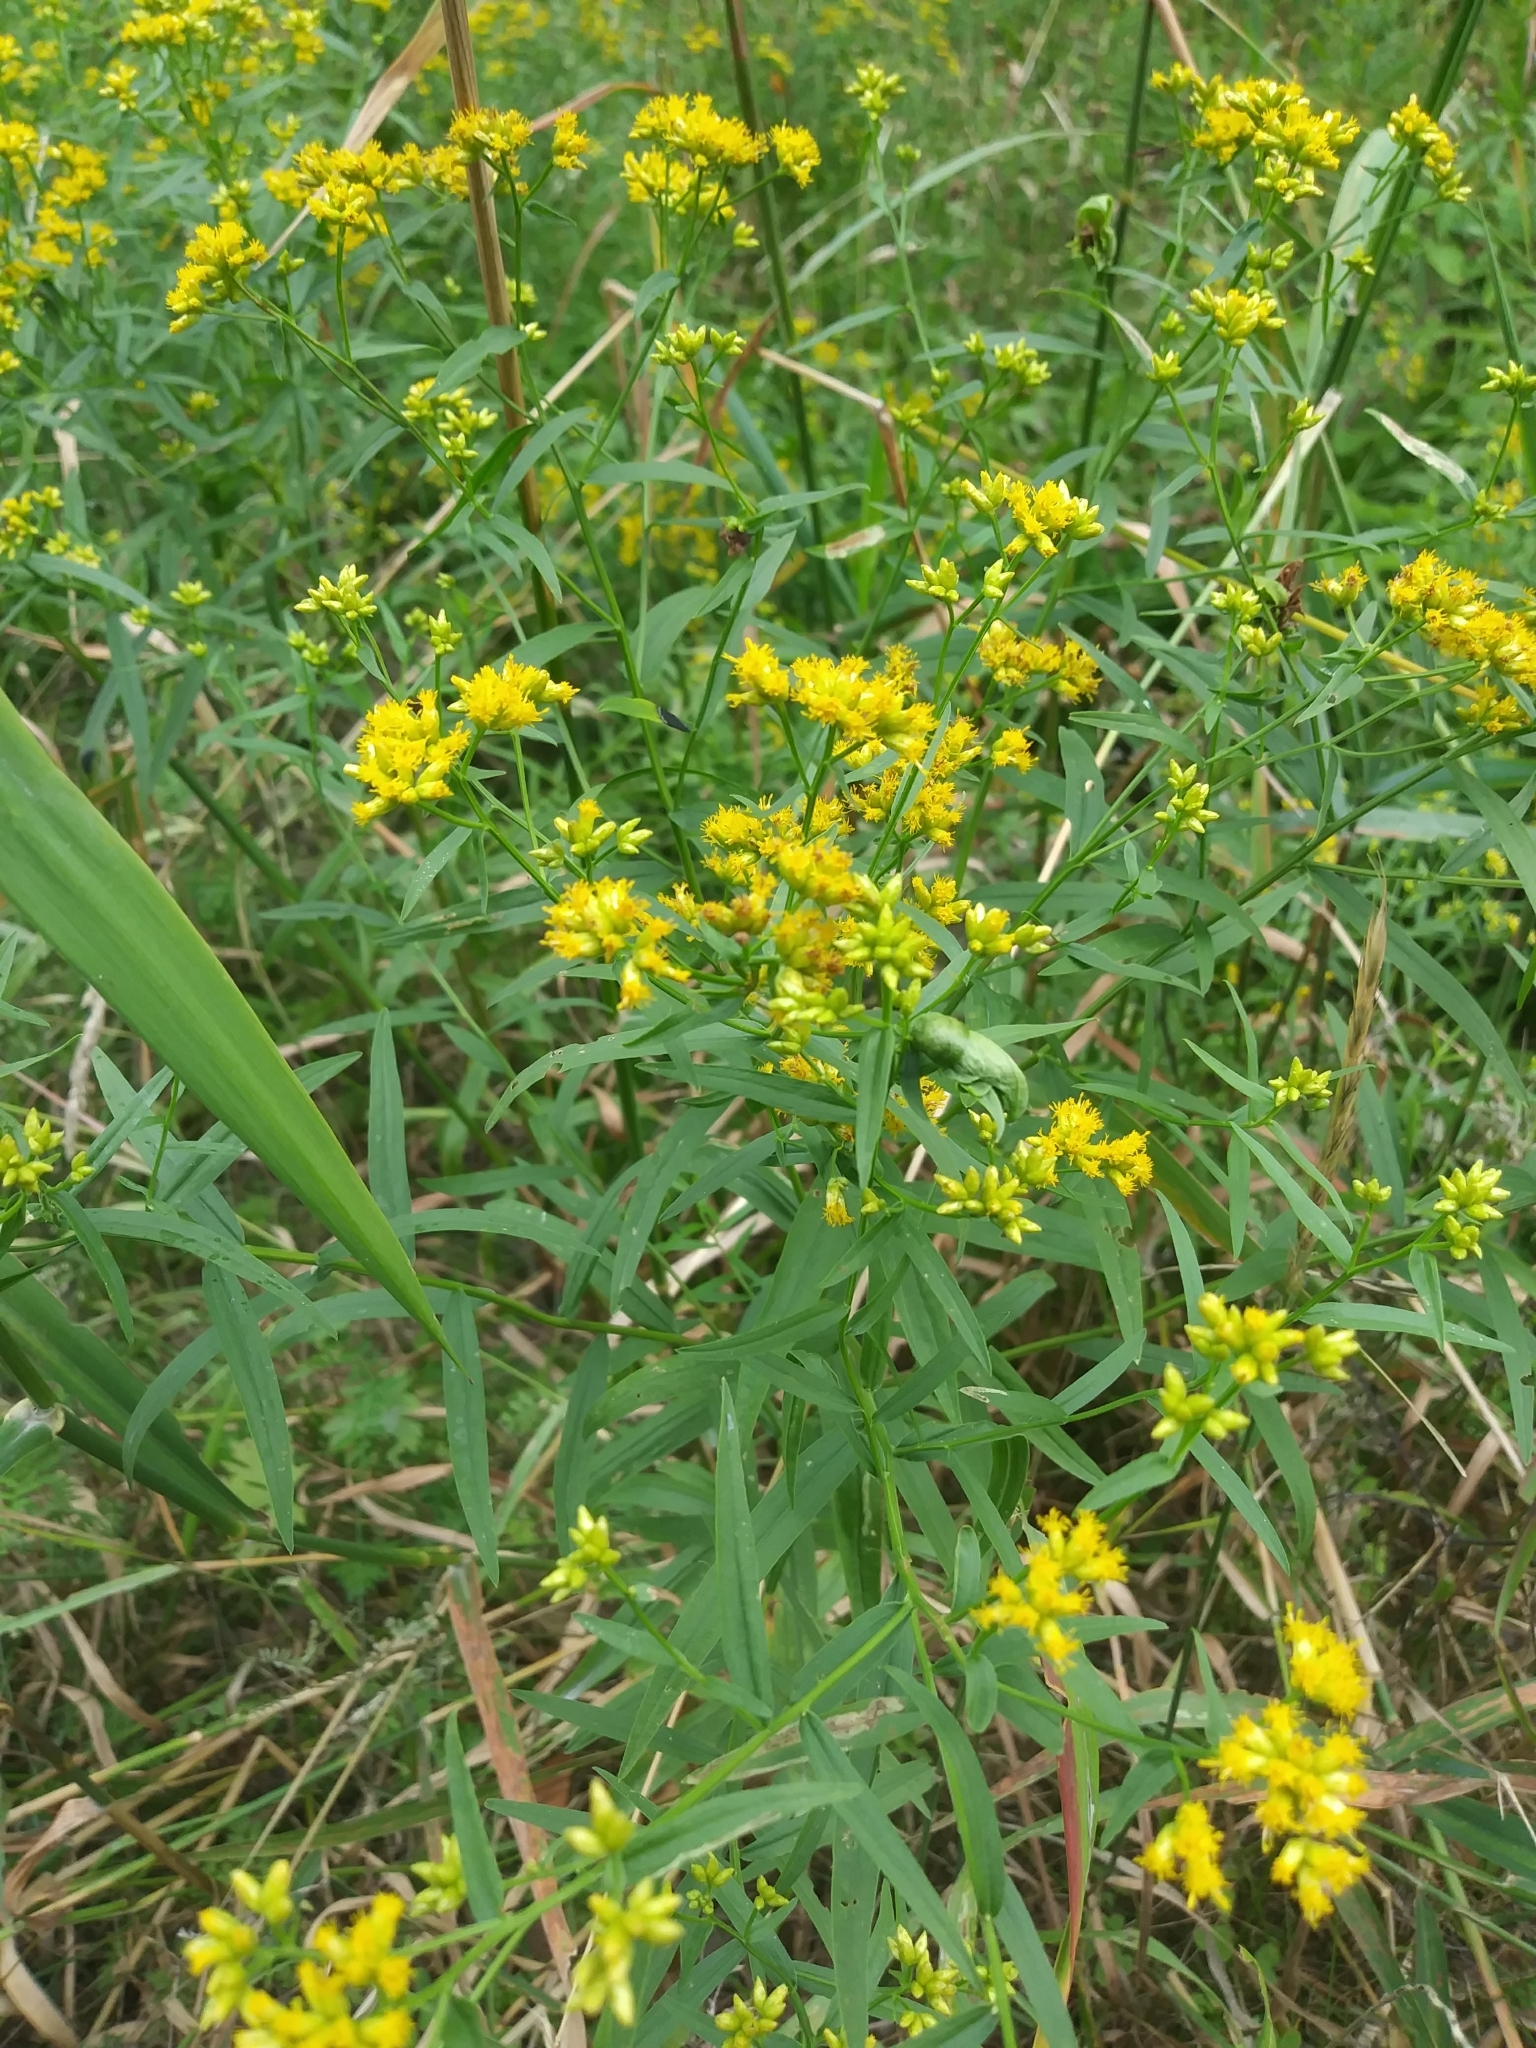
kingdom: Plantae
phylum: Tracheophyta
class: Magnoliopsida
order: Asterales
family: Asteraceae
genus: Euthamia
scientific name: Euthamia graminifolia
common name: Common goldentop
